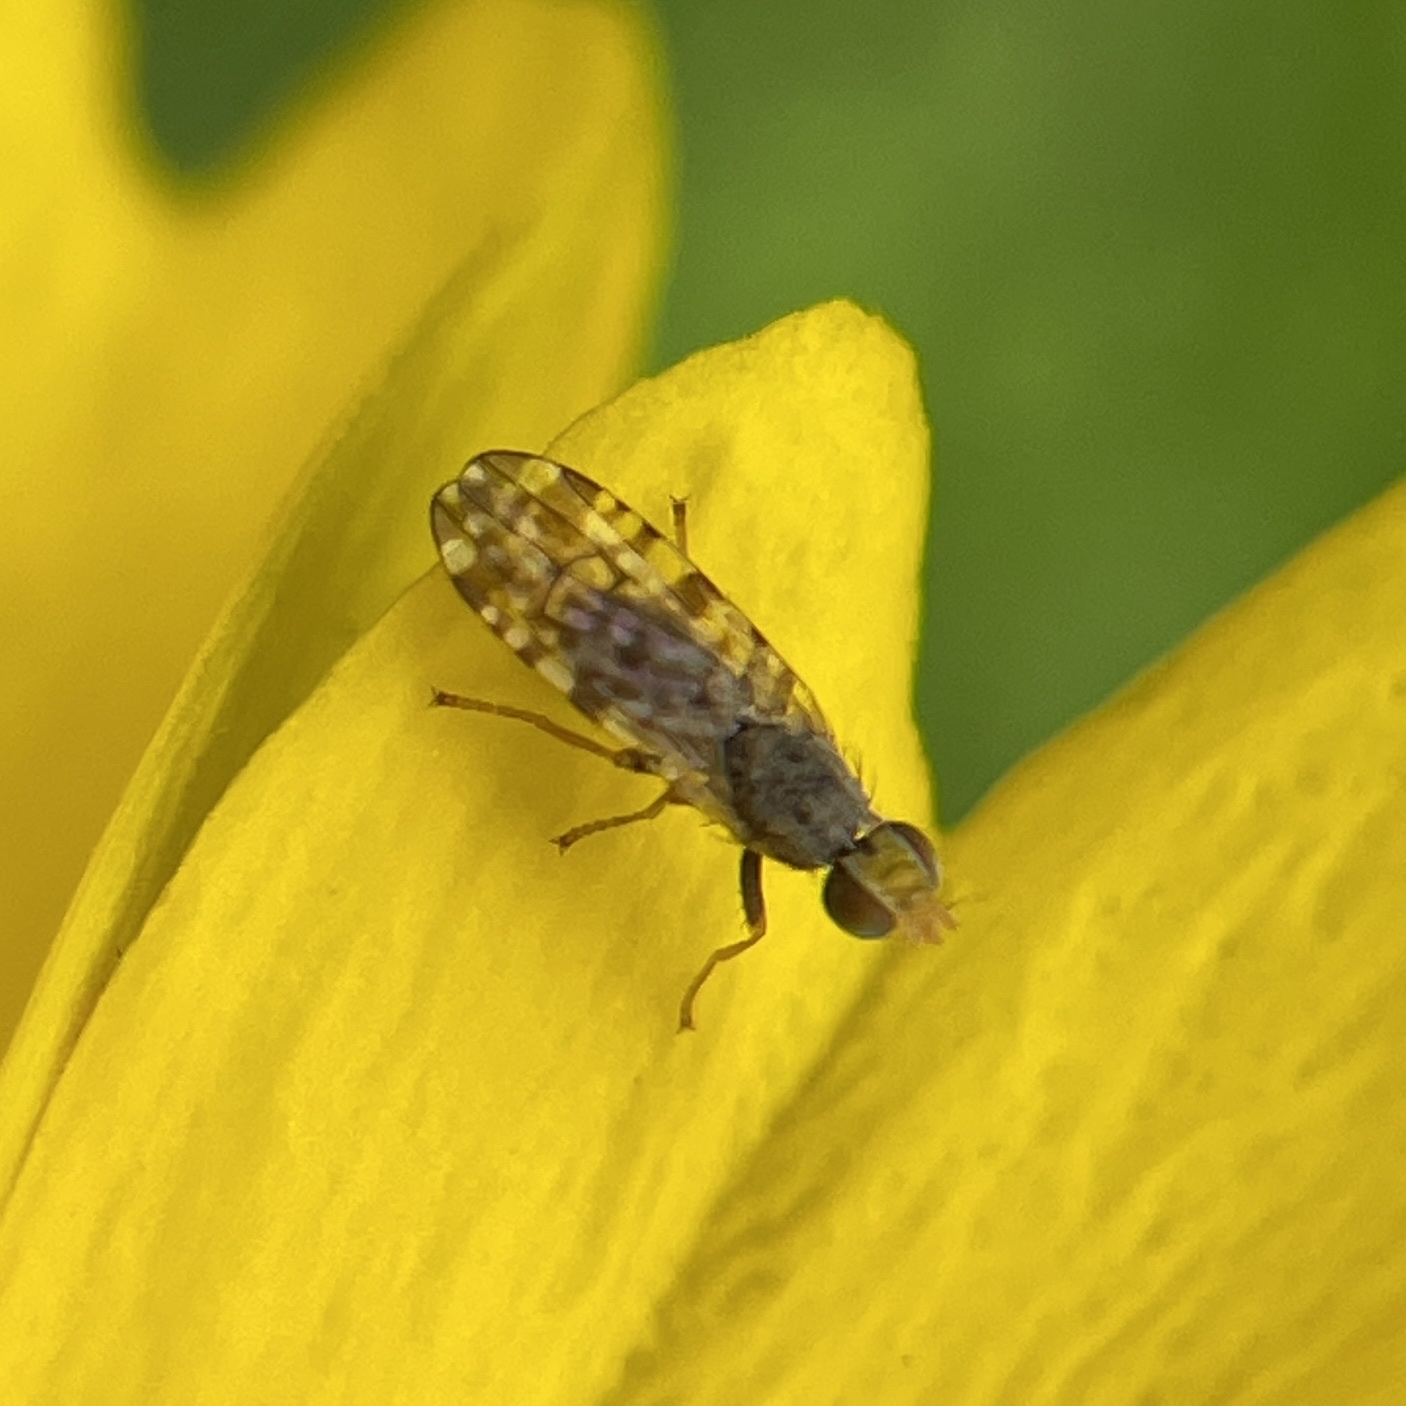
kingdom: Animalia
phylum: Arthropoda
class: Insecta
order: Diptera
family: Tephritidae
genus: Dioxyna
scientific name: Dioxyna picciola
